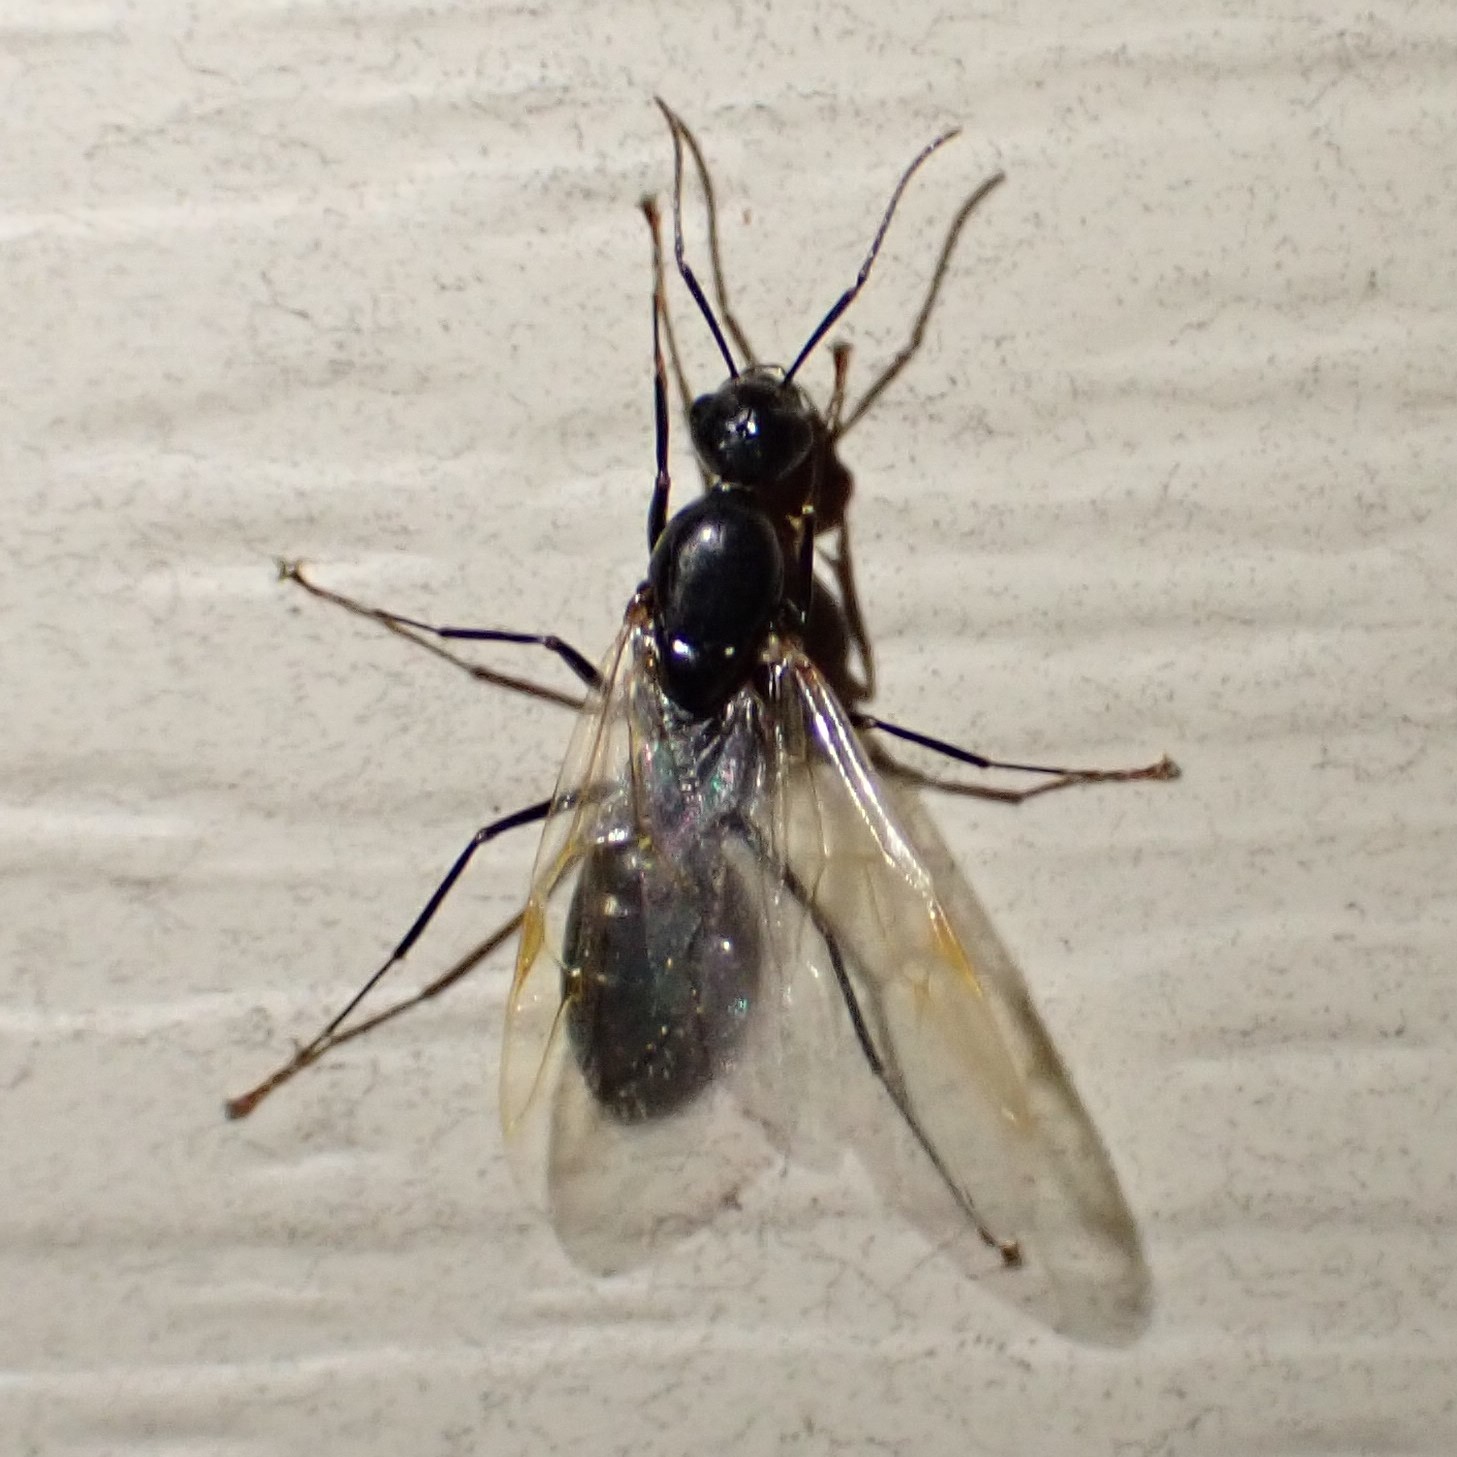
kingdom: Animalia
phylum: Arthropoda
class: Insecta
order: Hymenoptera
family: Formicidae
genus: Myrmentoma
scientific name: Myrmentoma
